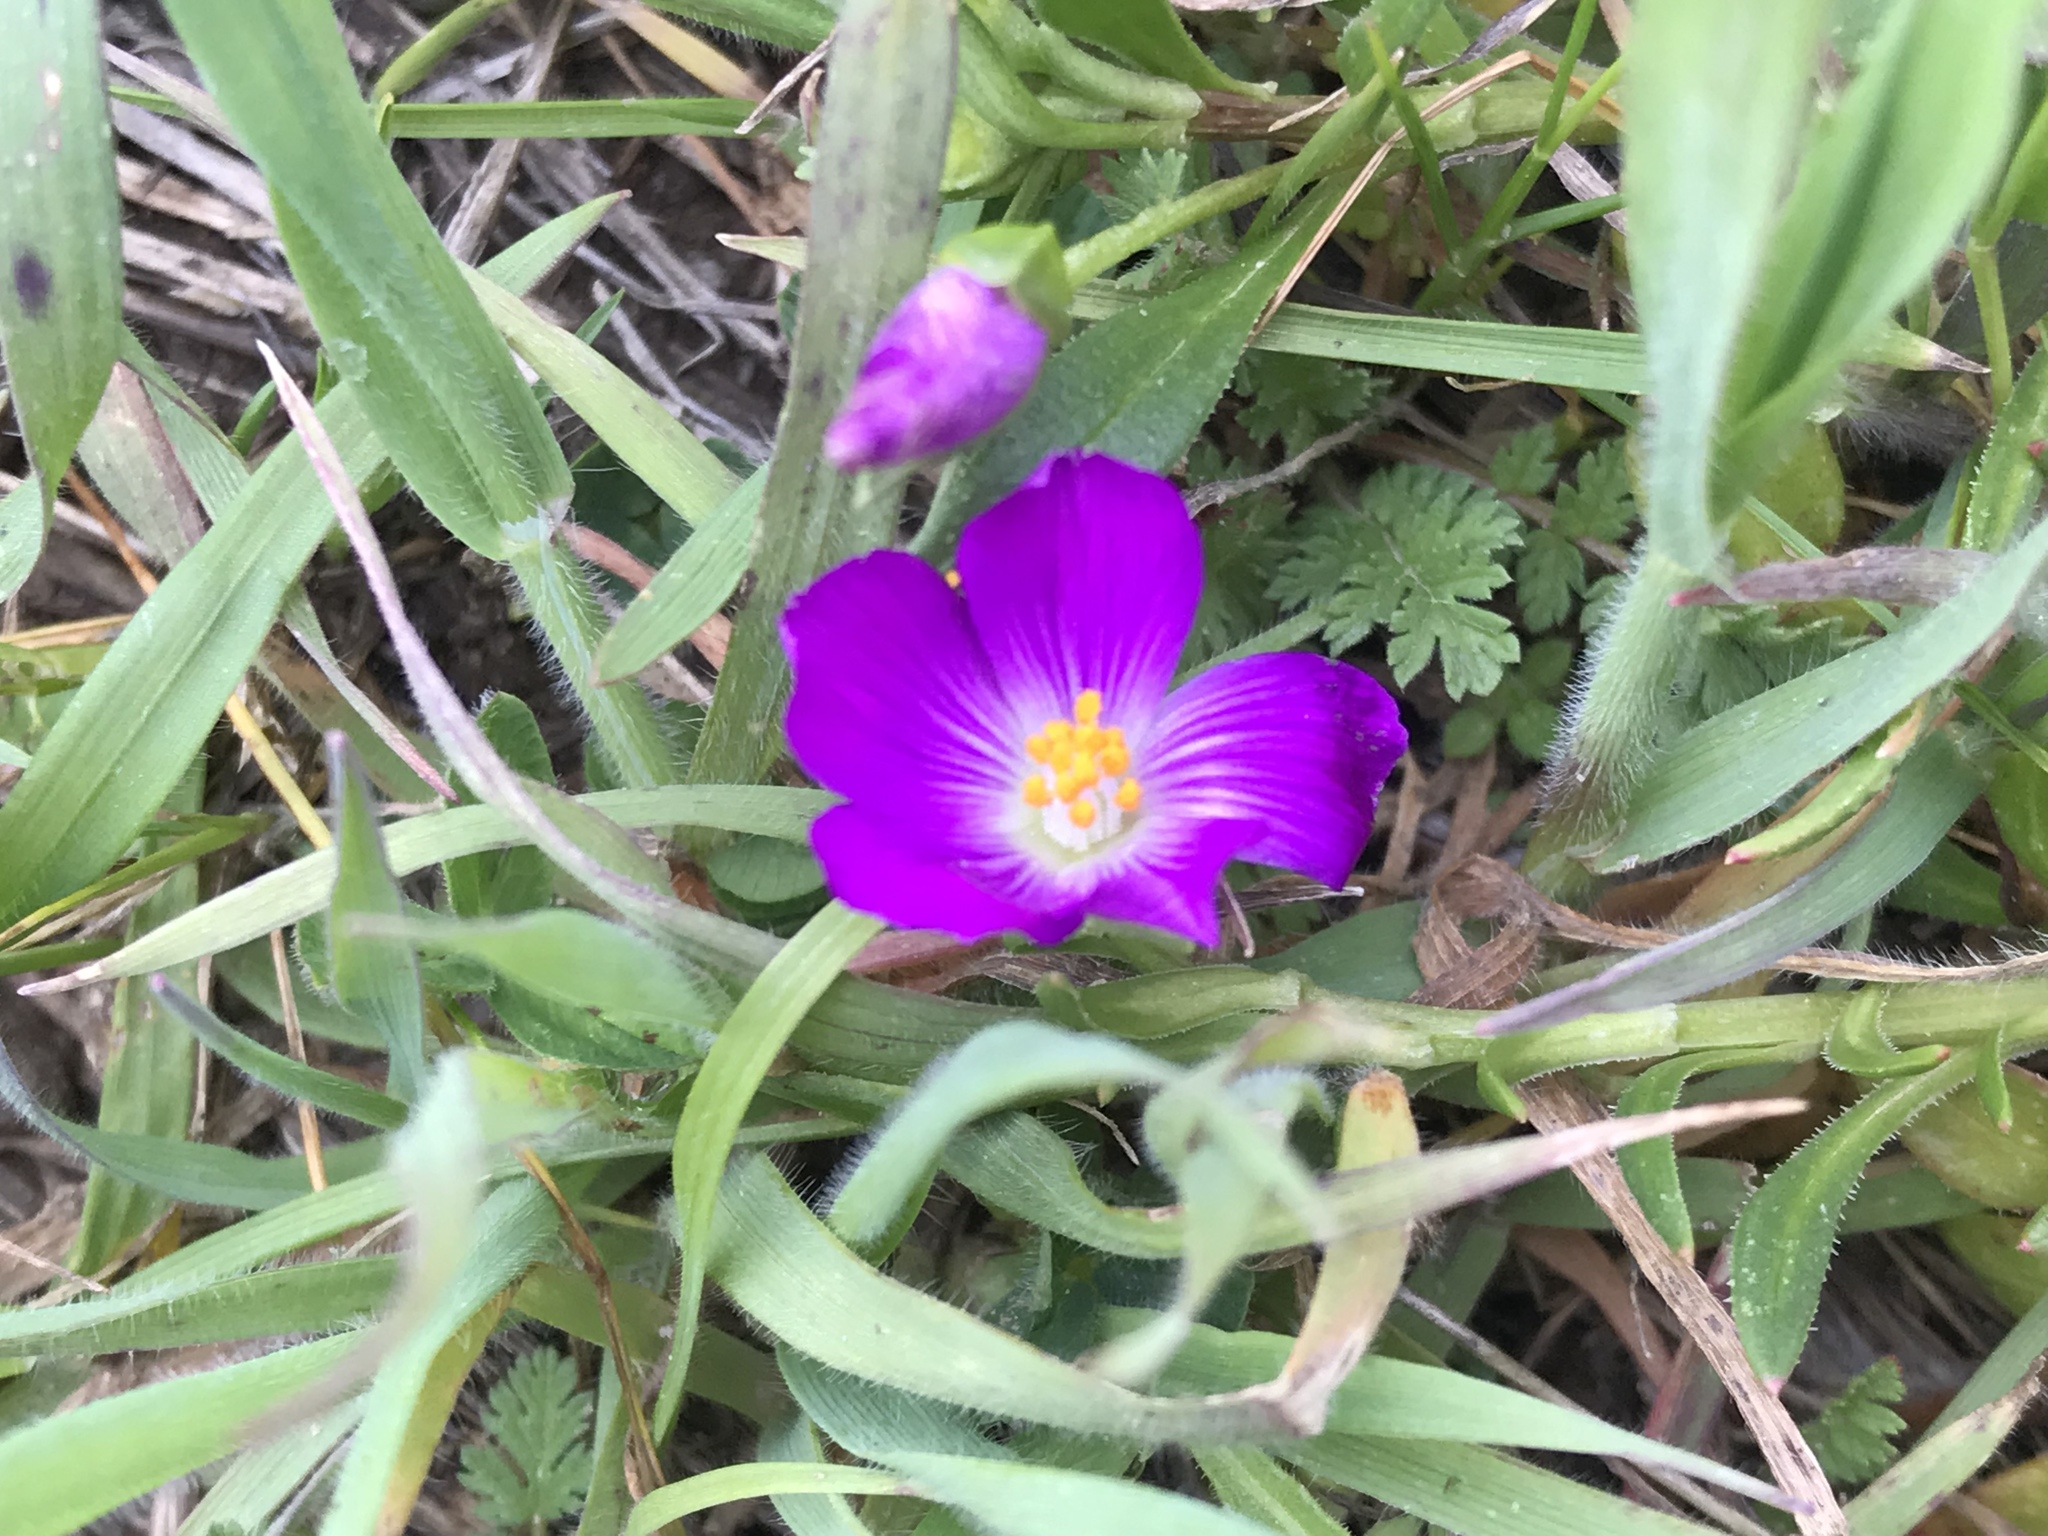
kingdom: Plantae
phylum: Tracheophyta
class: Magnoliopsida
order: Caryophyllales
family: Montiaceae
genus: Calandrinia
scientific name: Calandrinia menziesii
